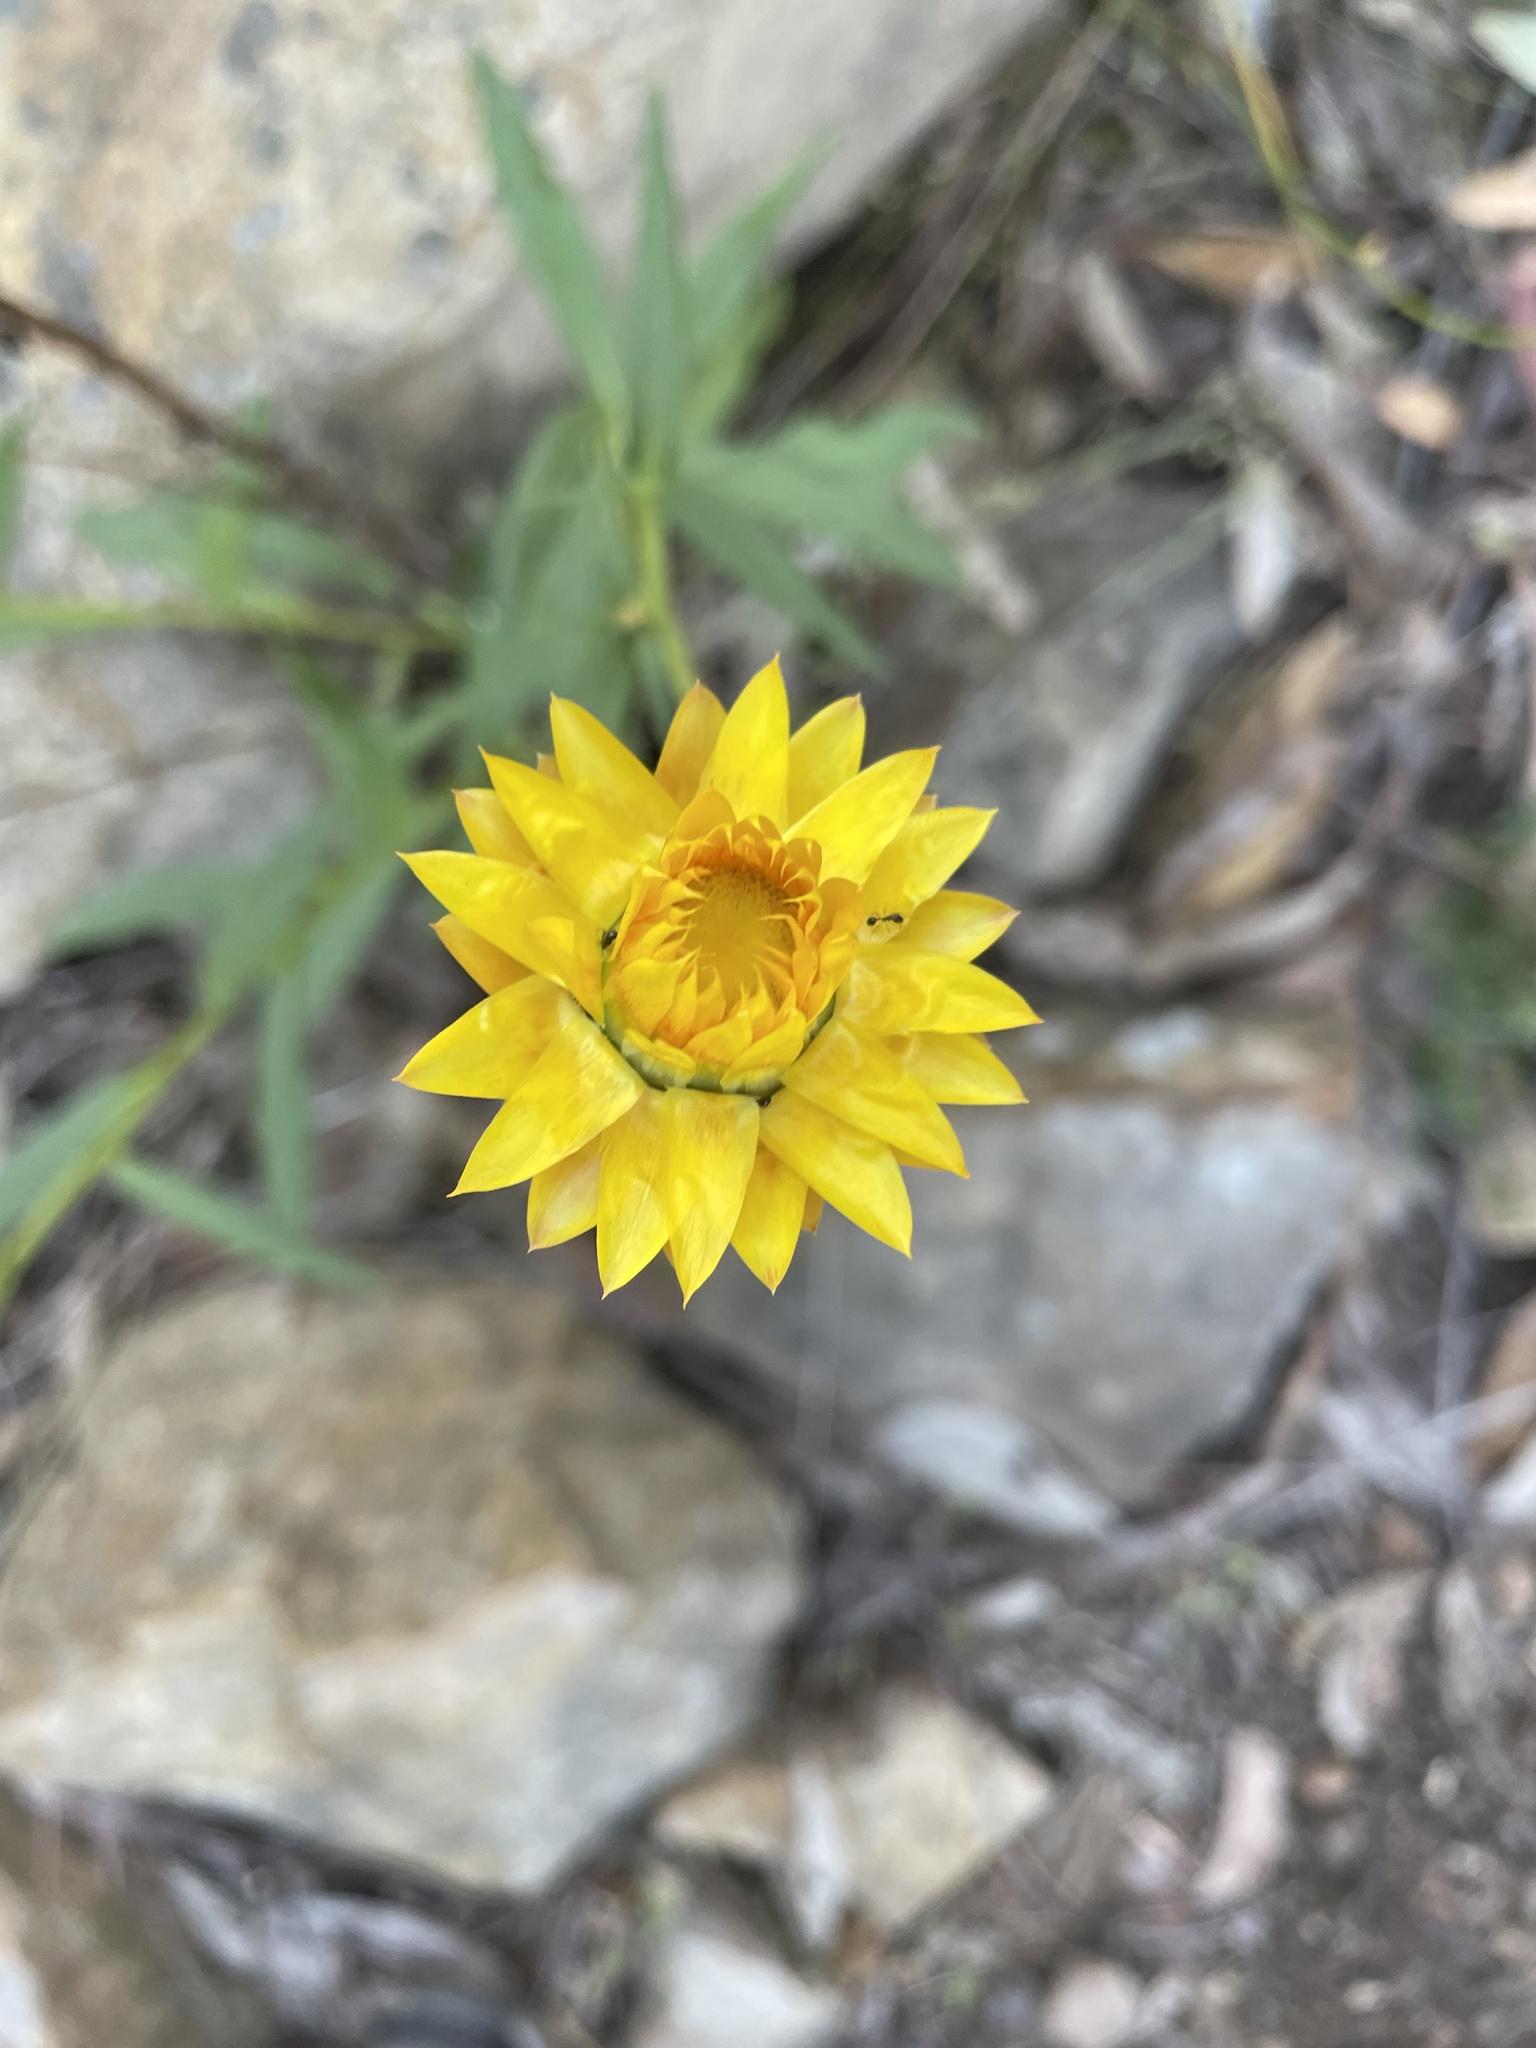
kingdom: Plantae
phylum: Tracheophyta
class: Magnoliopsida
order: Asterales
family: Asteraceae
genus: Xerochrysum
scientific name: Xerochrysum bracteatum
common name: Bracted strawflower
